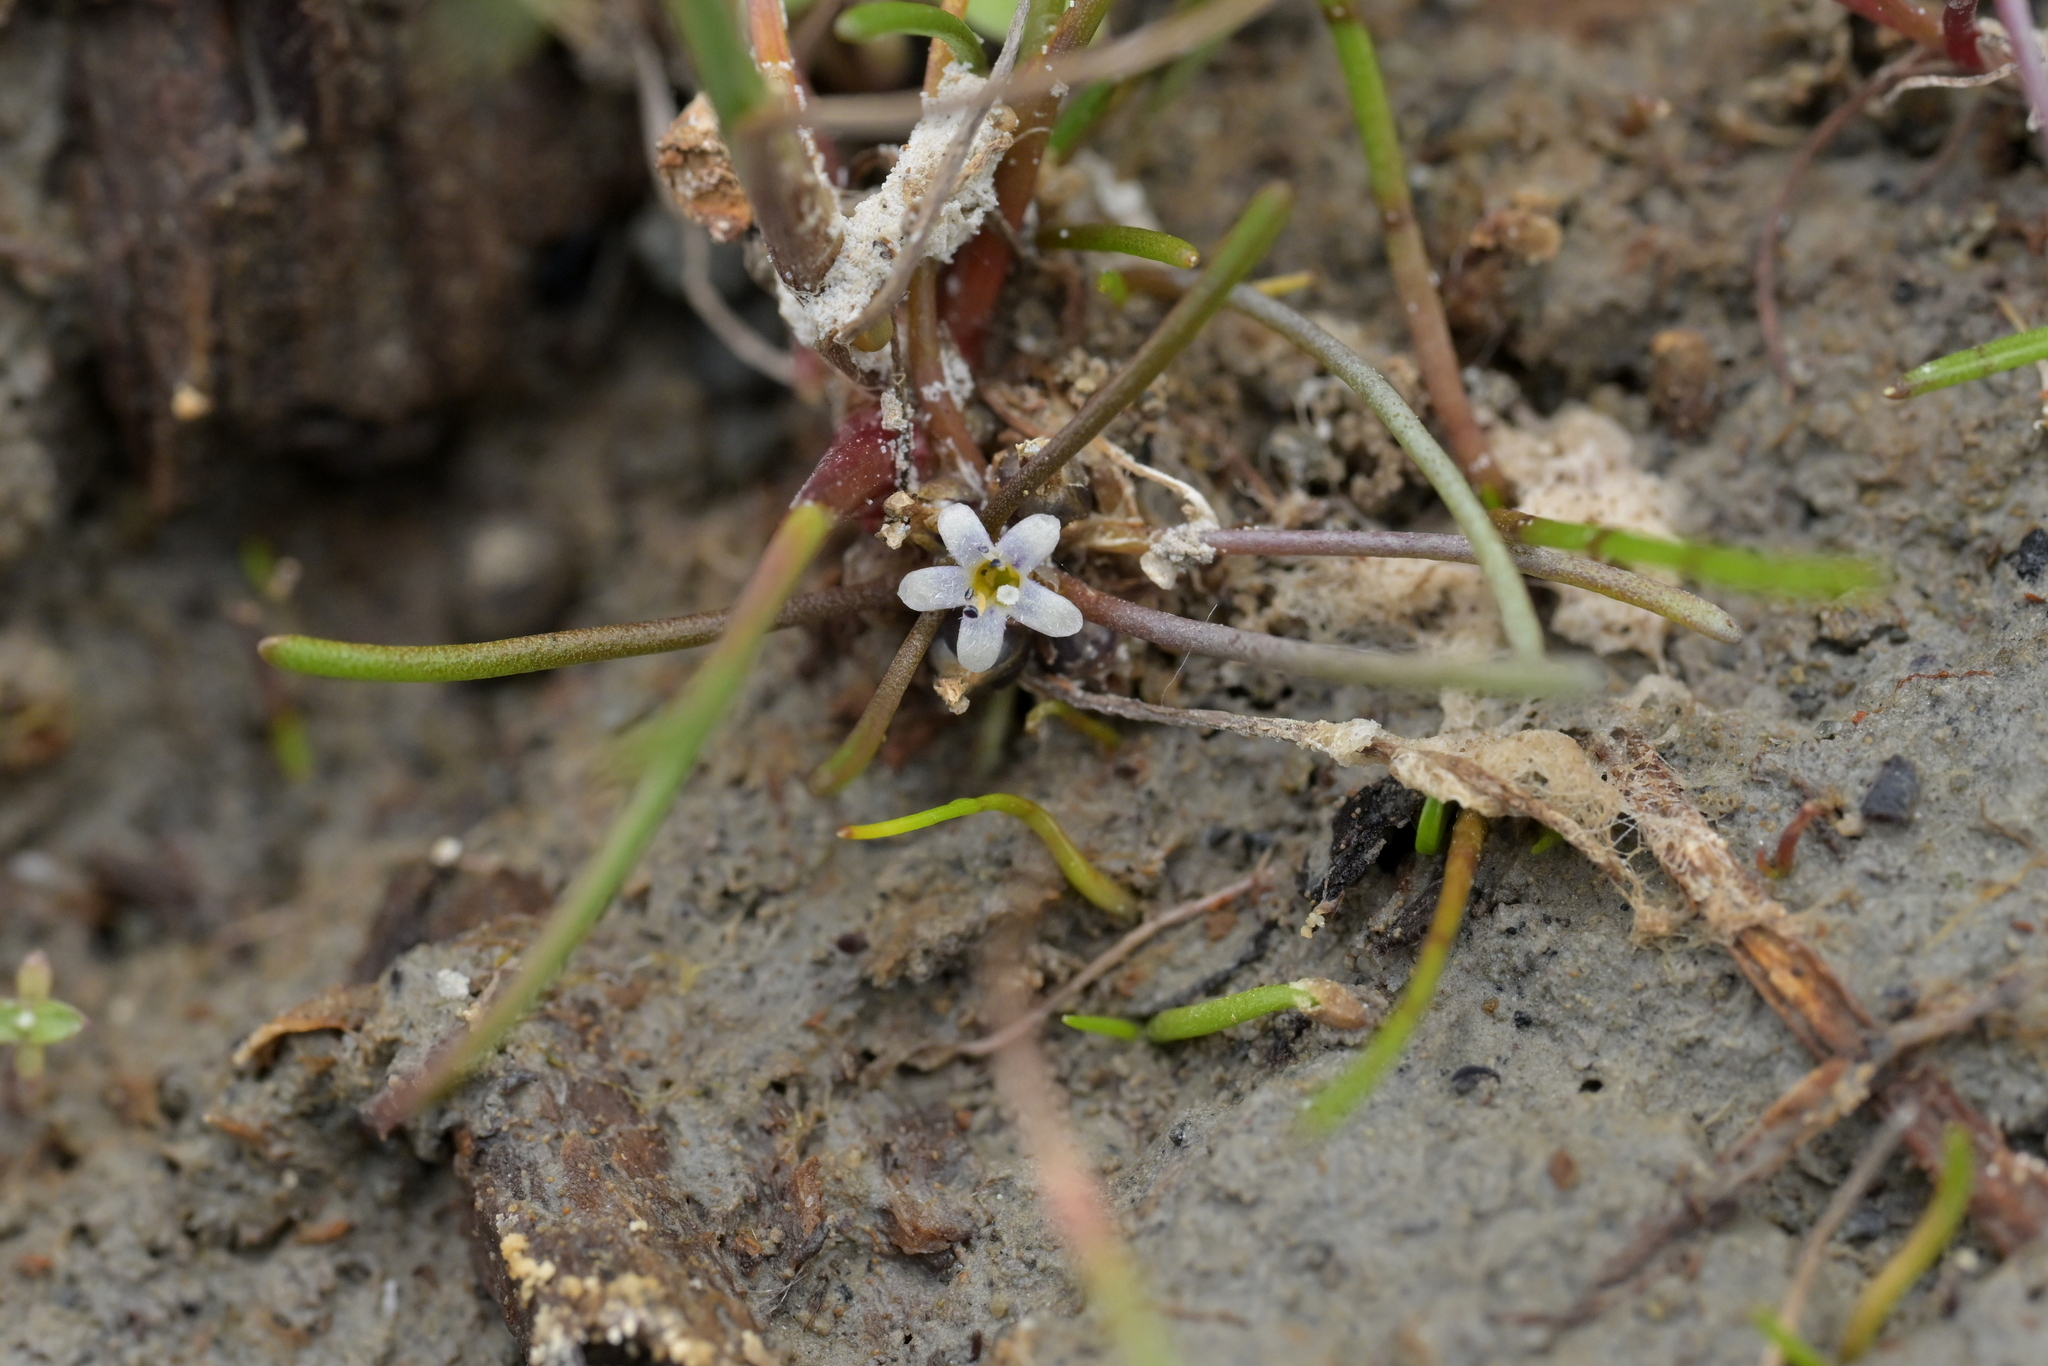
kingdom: Plantae
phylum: Tracheophyta
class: Magnoliopsida
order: Lamiales
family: Scrophulariaceae
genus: Limosella
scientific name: Limosella australis
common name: Welsh mudwort
